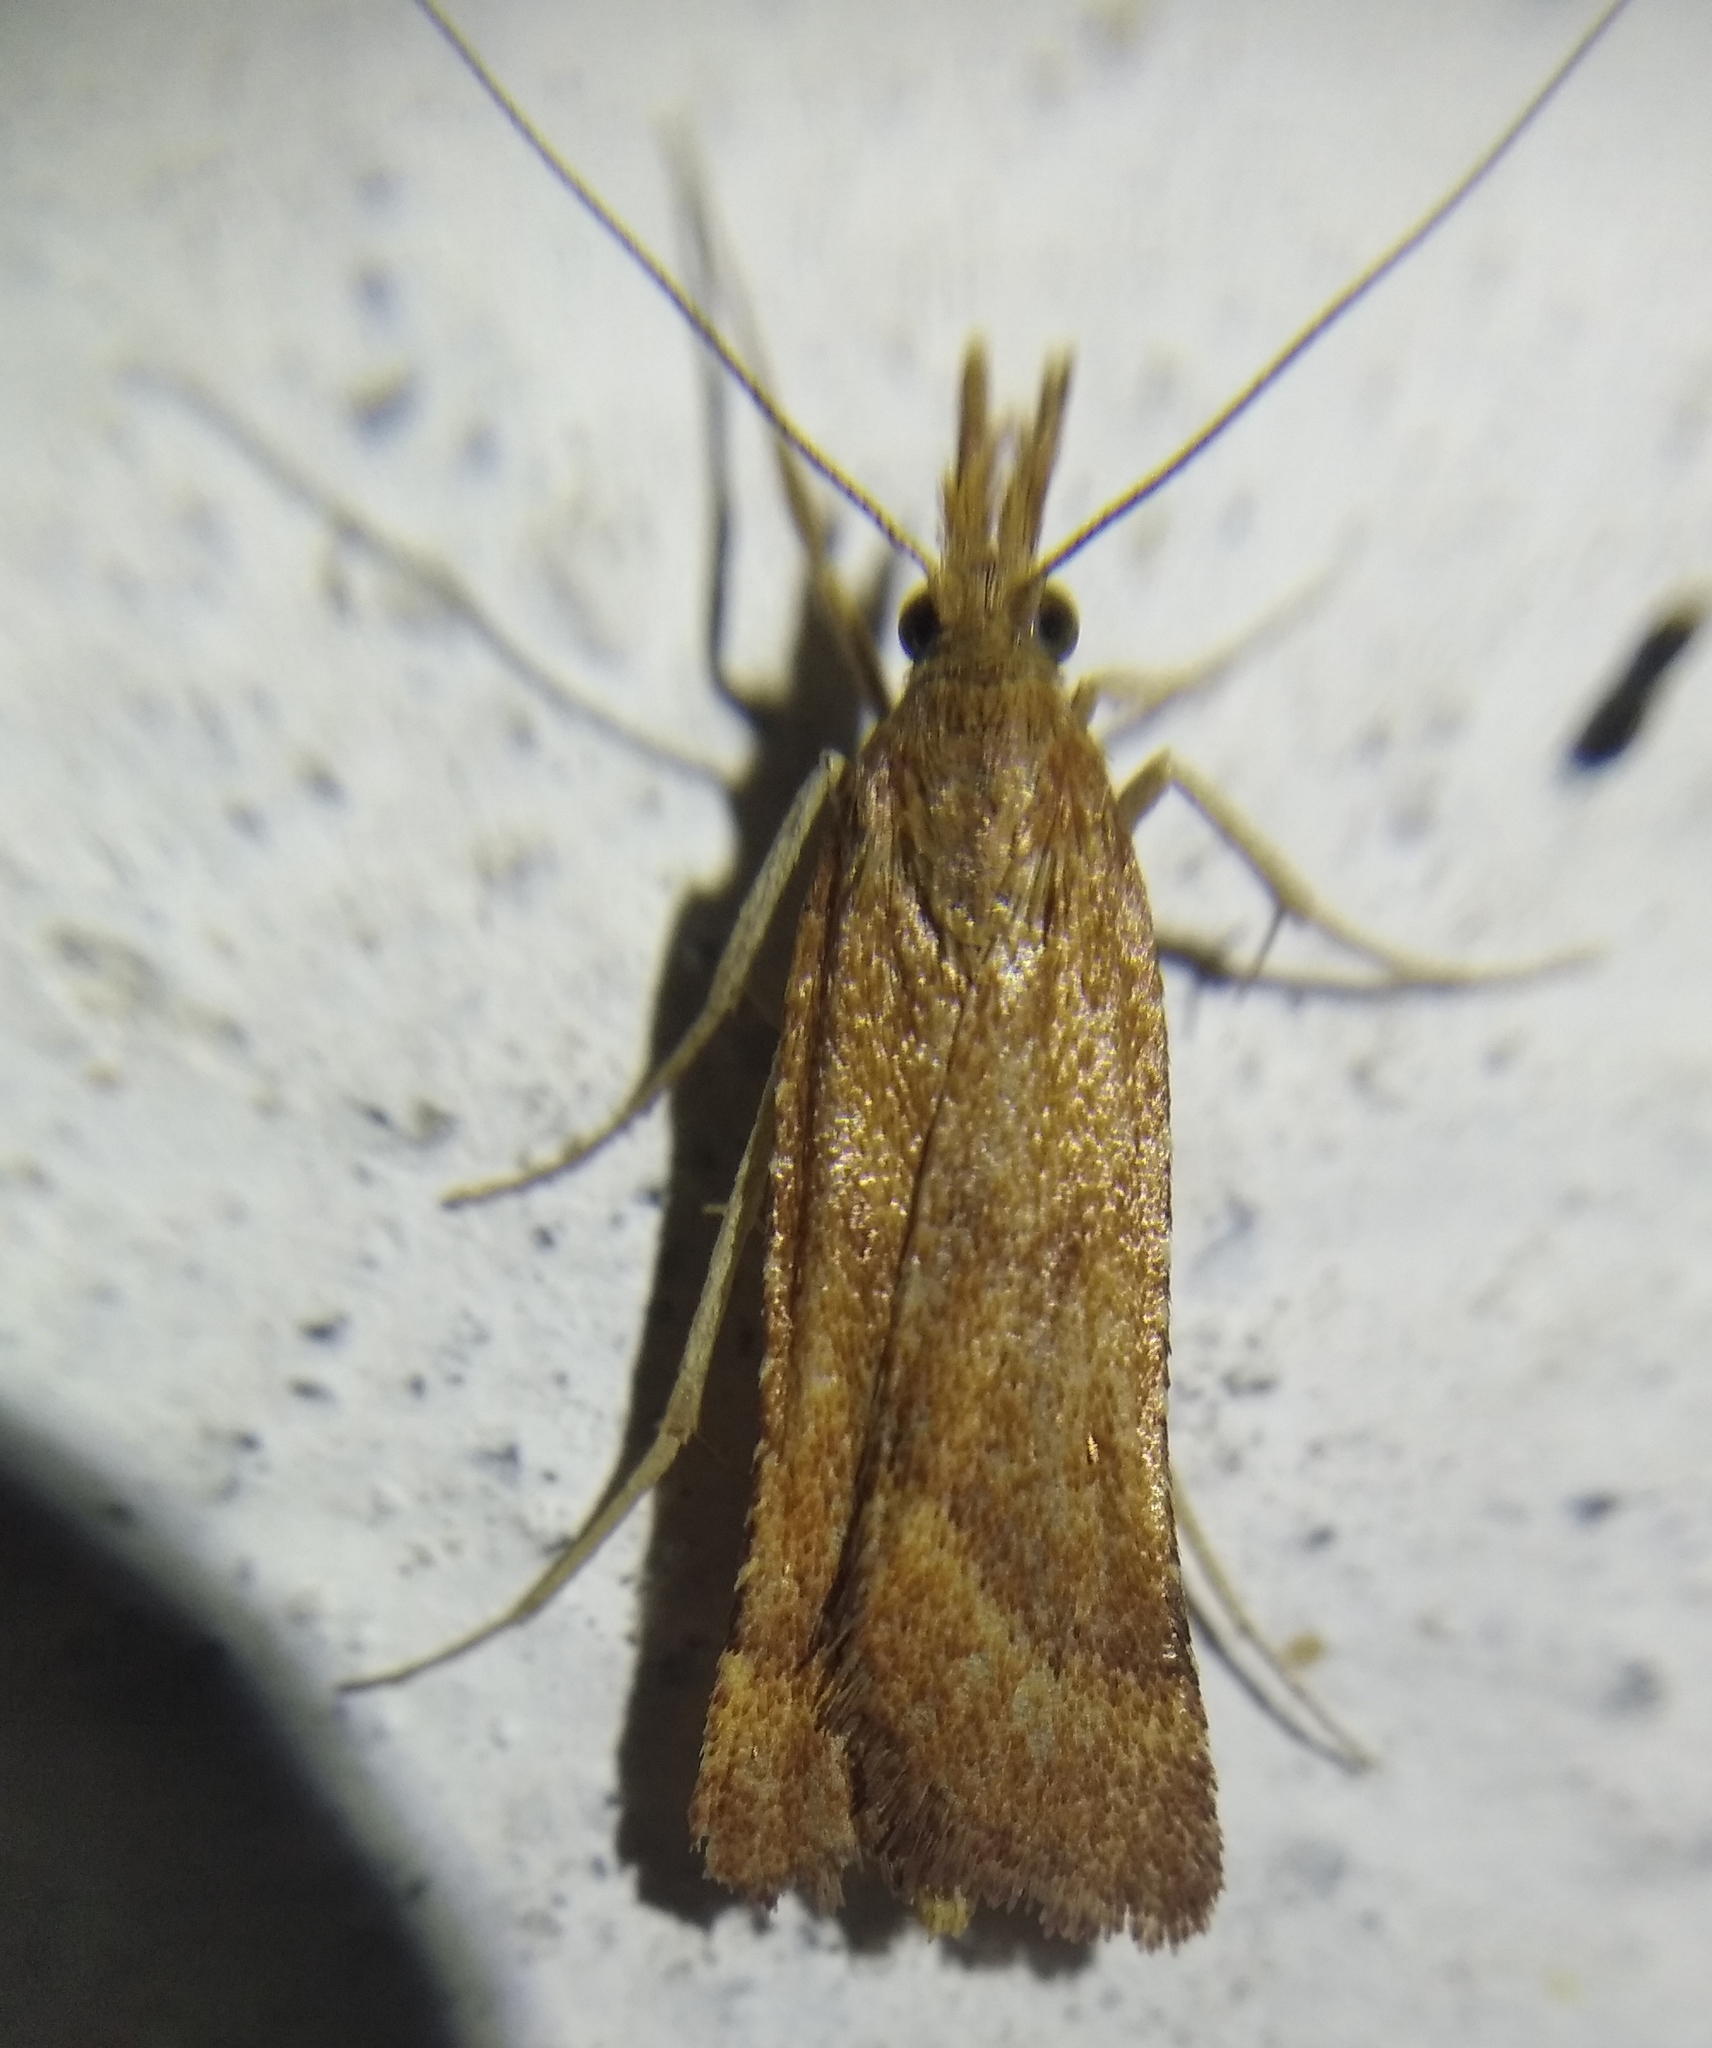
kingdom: Animalia
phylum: Arthropoda
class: Insecta
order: Lepidoptera
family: Pyralidae
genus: Synaphe
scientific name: Synaphe punctalis
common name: Long-legged tabby
